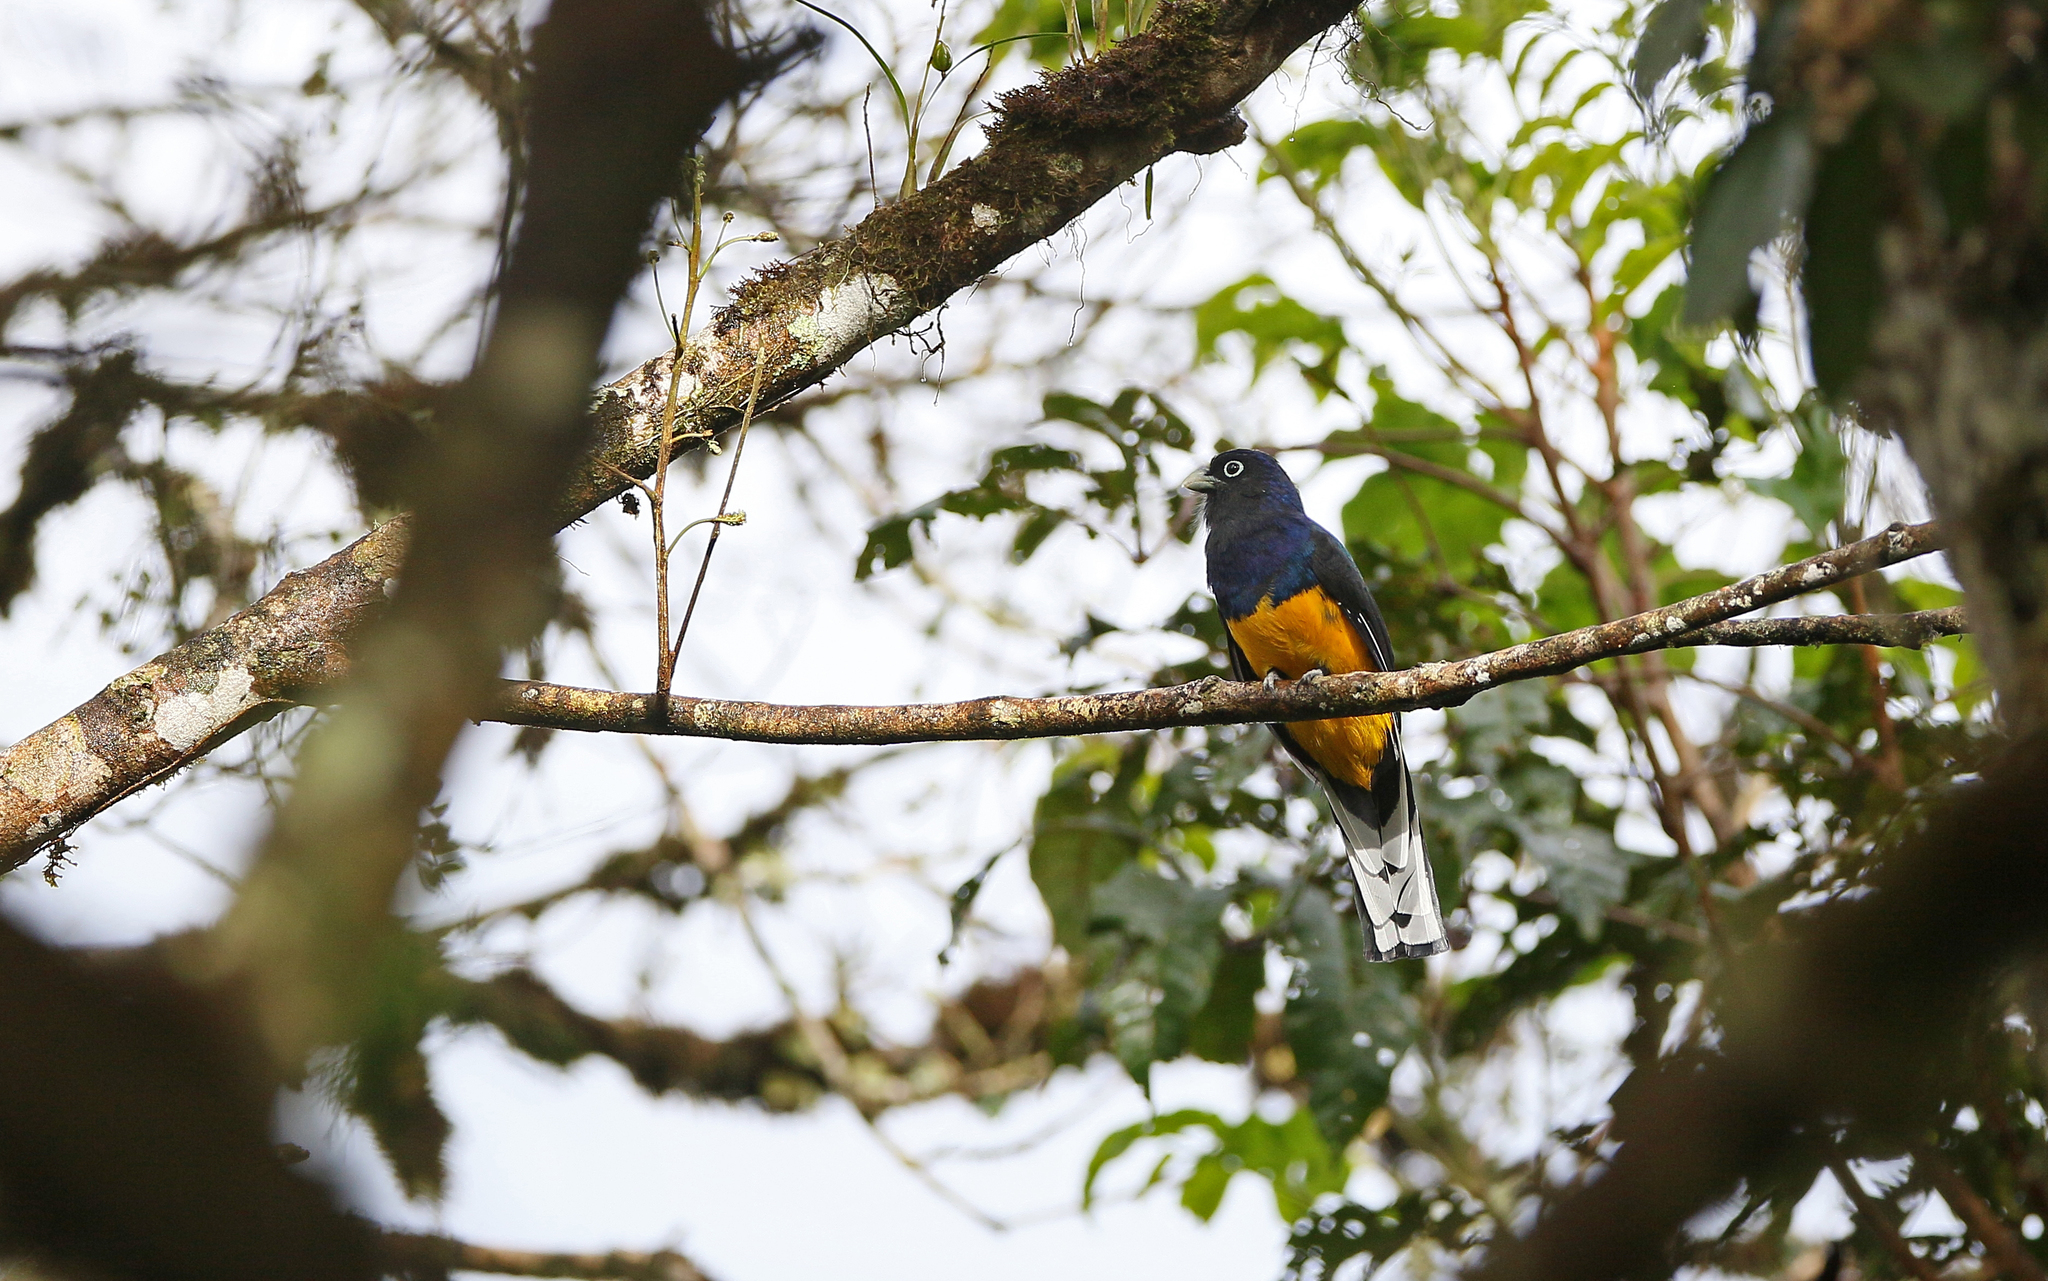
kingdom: Animalia
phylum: Chordata
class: Aves
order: Trogoniformes
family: Trogonidae
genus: Trogon
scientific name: Trogon viridis
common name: Green-backed trogon
